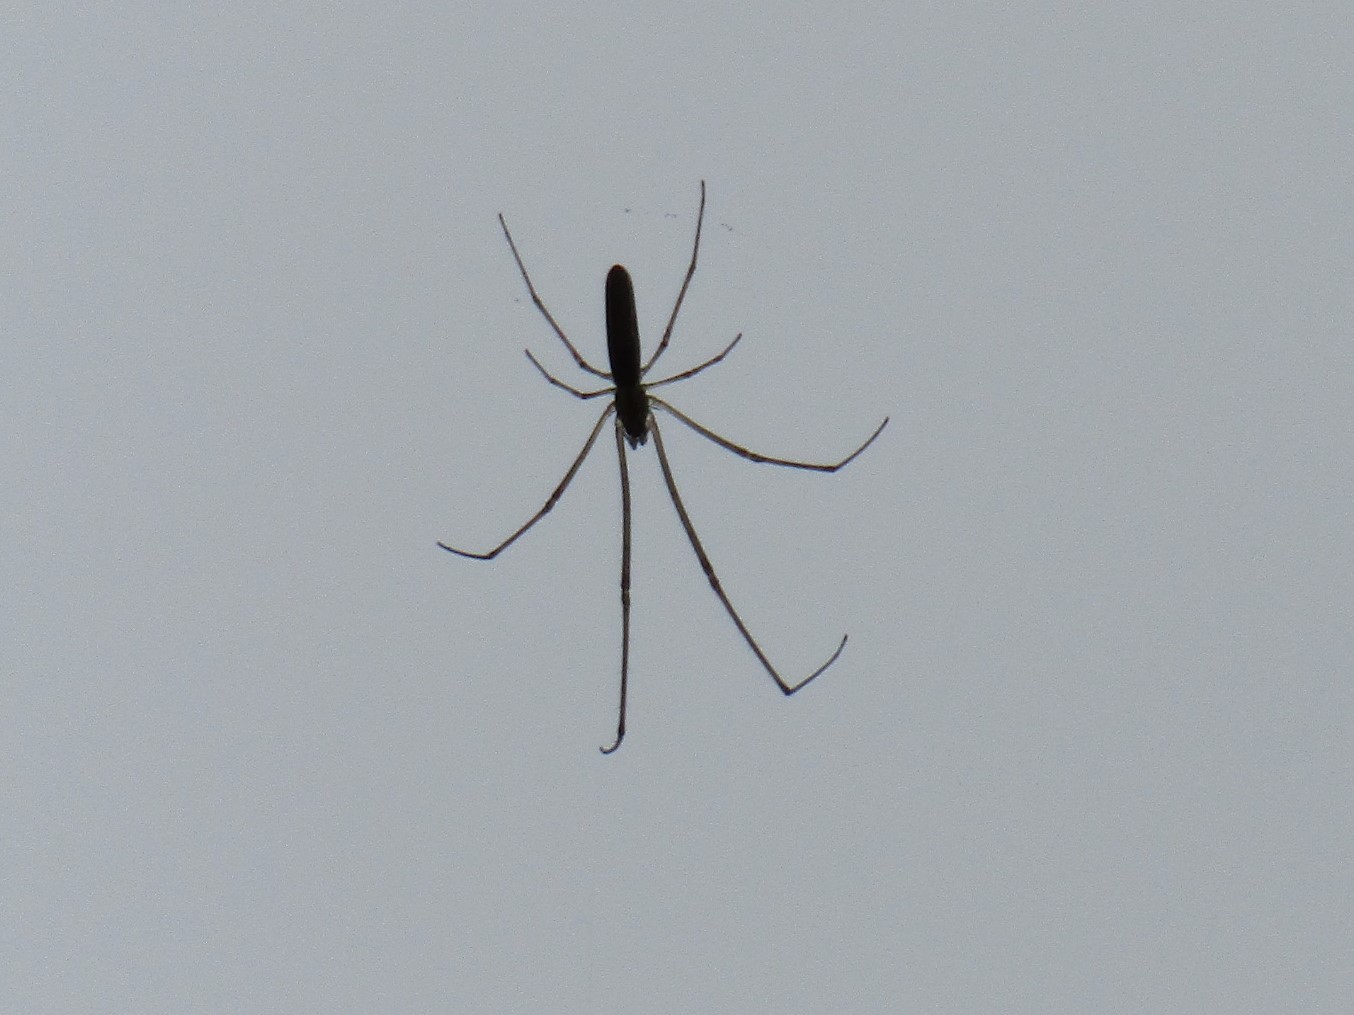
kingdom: Animalia
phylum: Arthropoda
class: Arachnida
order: Araneae
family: Tetragnathidae
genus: Tetragnatha
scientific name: Tetragnatha
